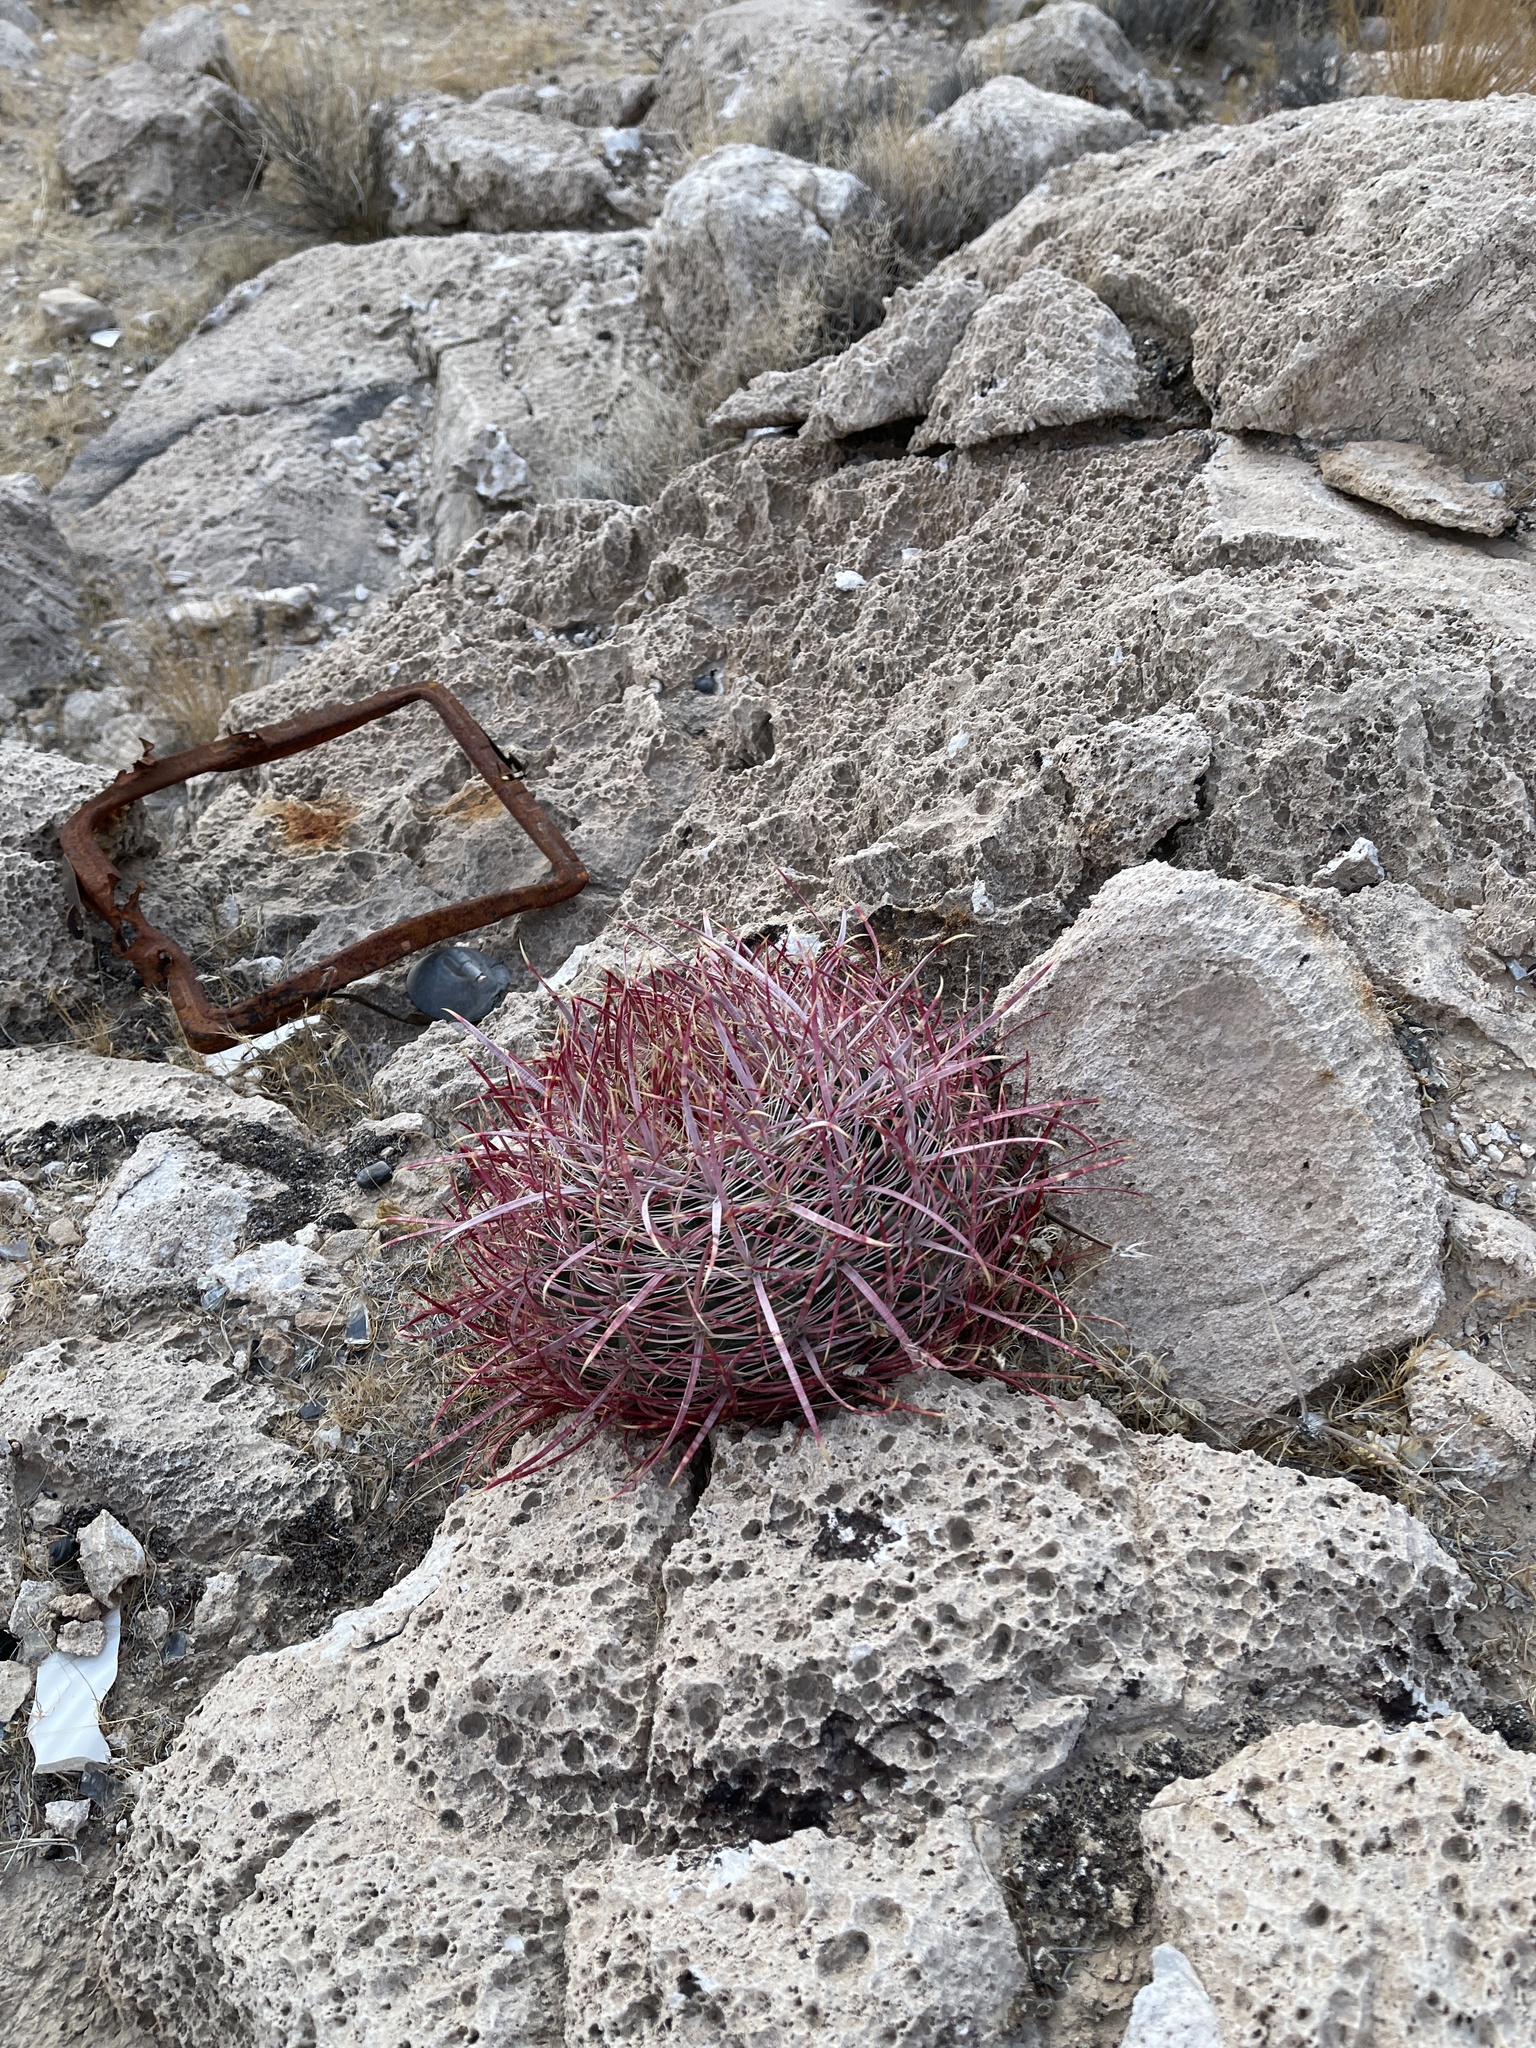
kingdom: Plantae
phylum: Tracheophyta
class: Magnoliopsida
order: Caryophyllales
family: Cactaceae
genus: Ferocactus
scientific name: Ferocactus cylindraceus
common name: California barrel cactus
